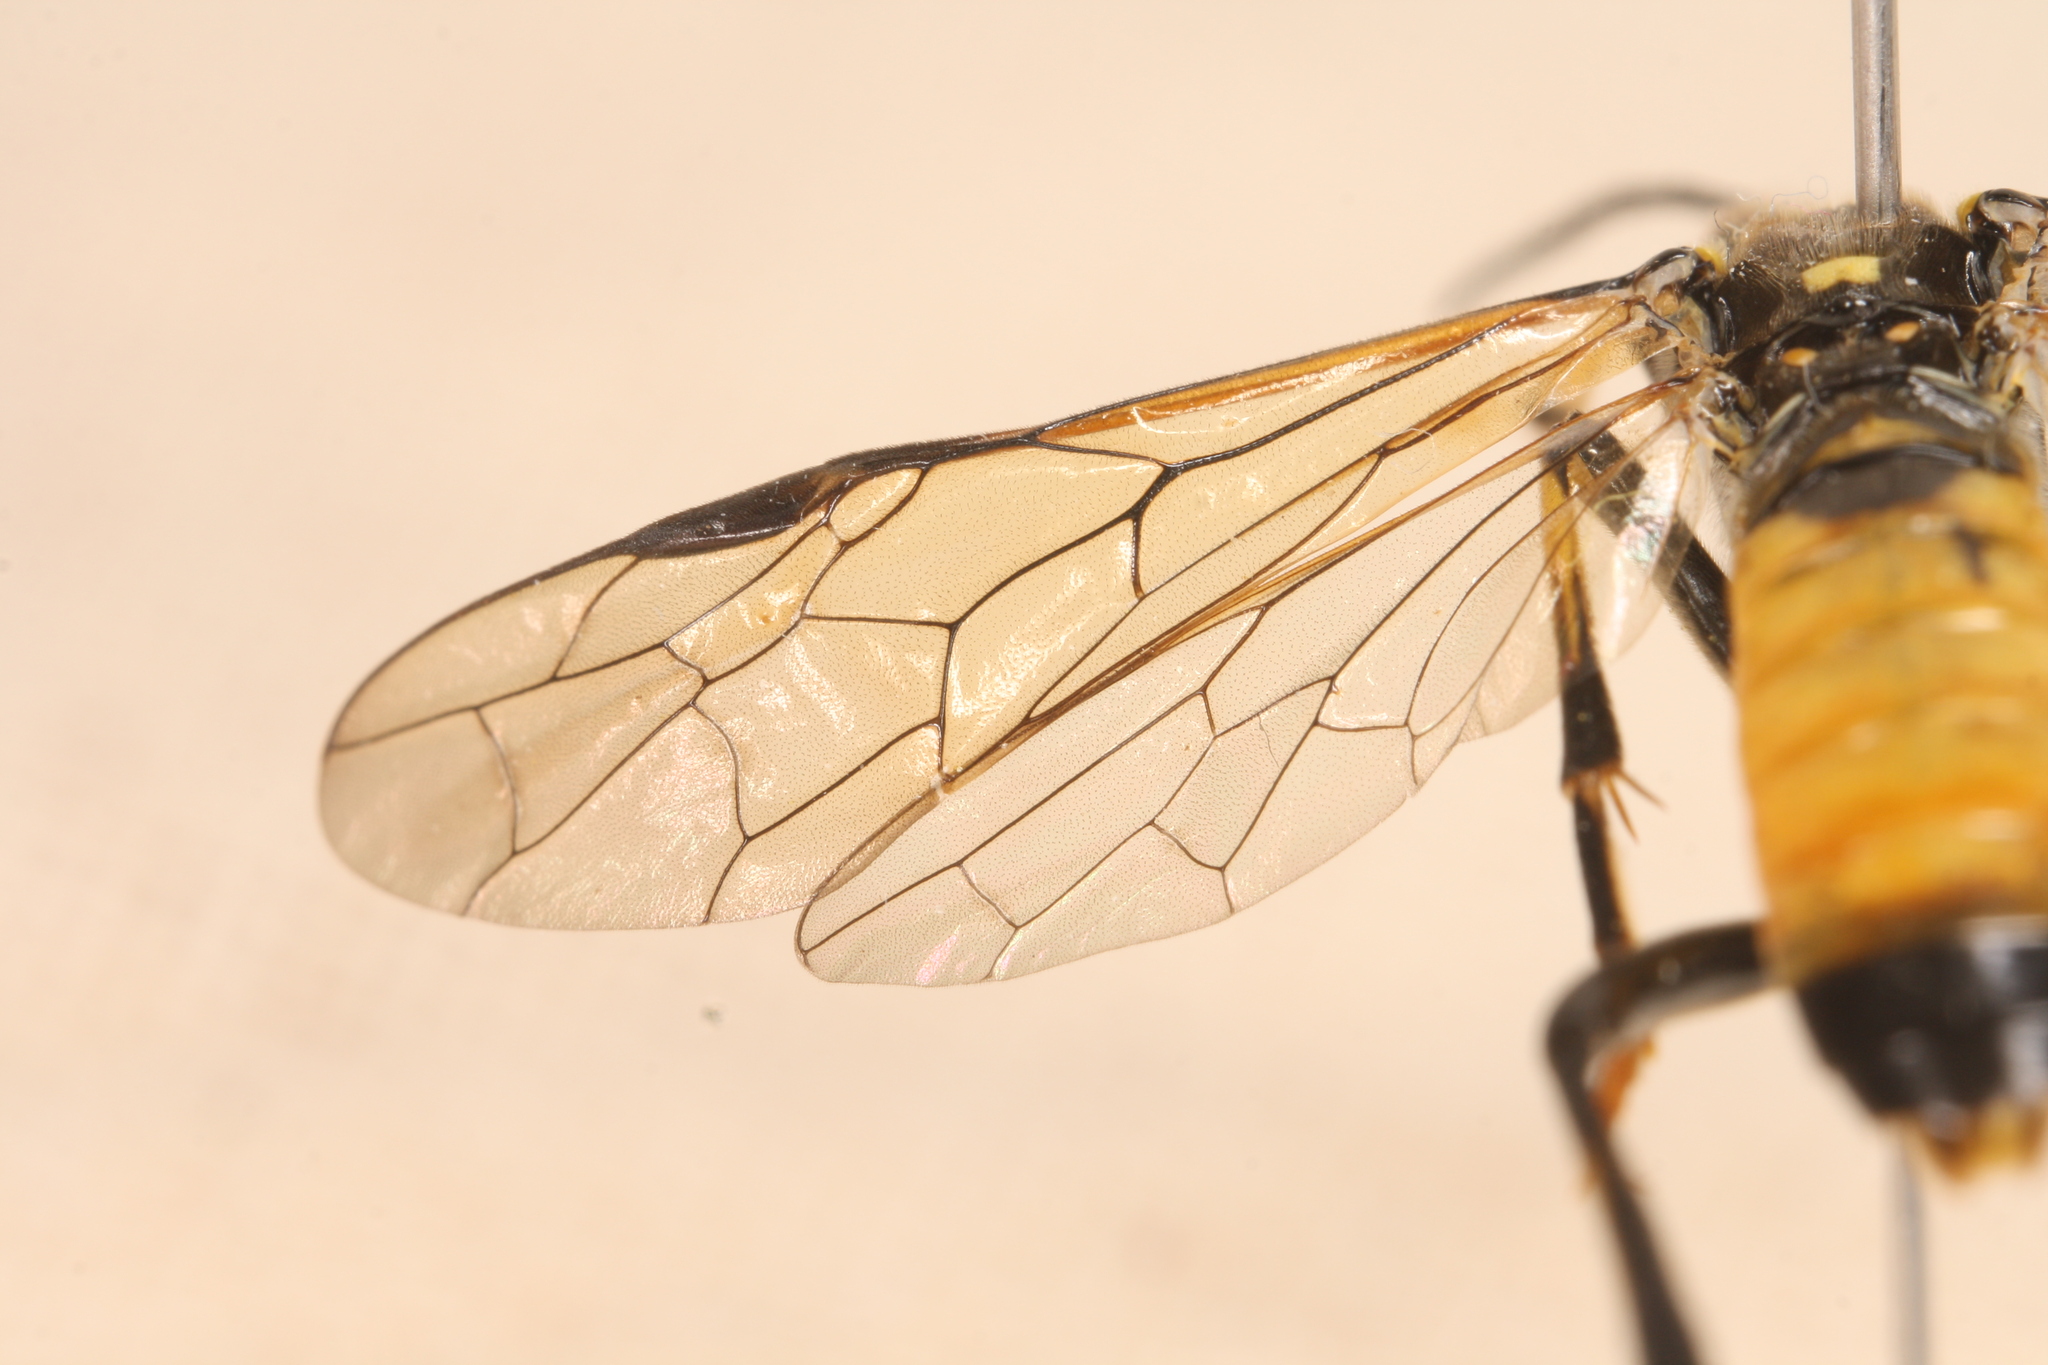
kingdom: Animalia
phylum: Arthropoda
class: Insecta
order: Hymenoptera
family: Tenthredinidae
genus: Tenthredo
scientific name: Tenthredo maculata
